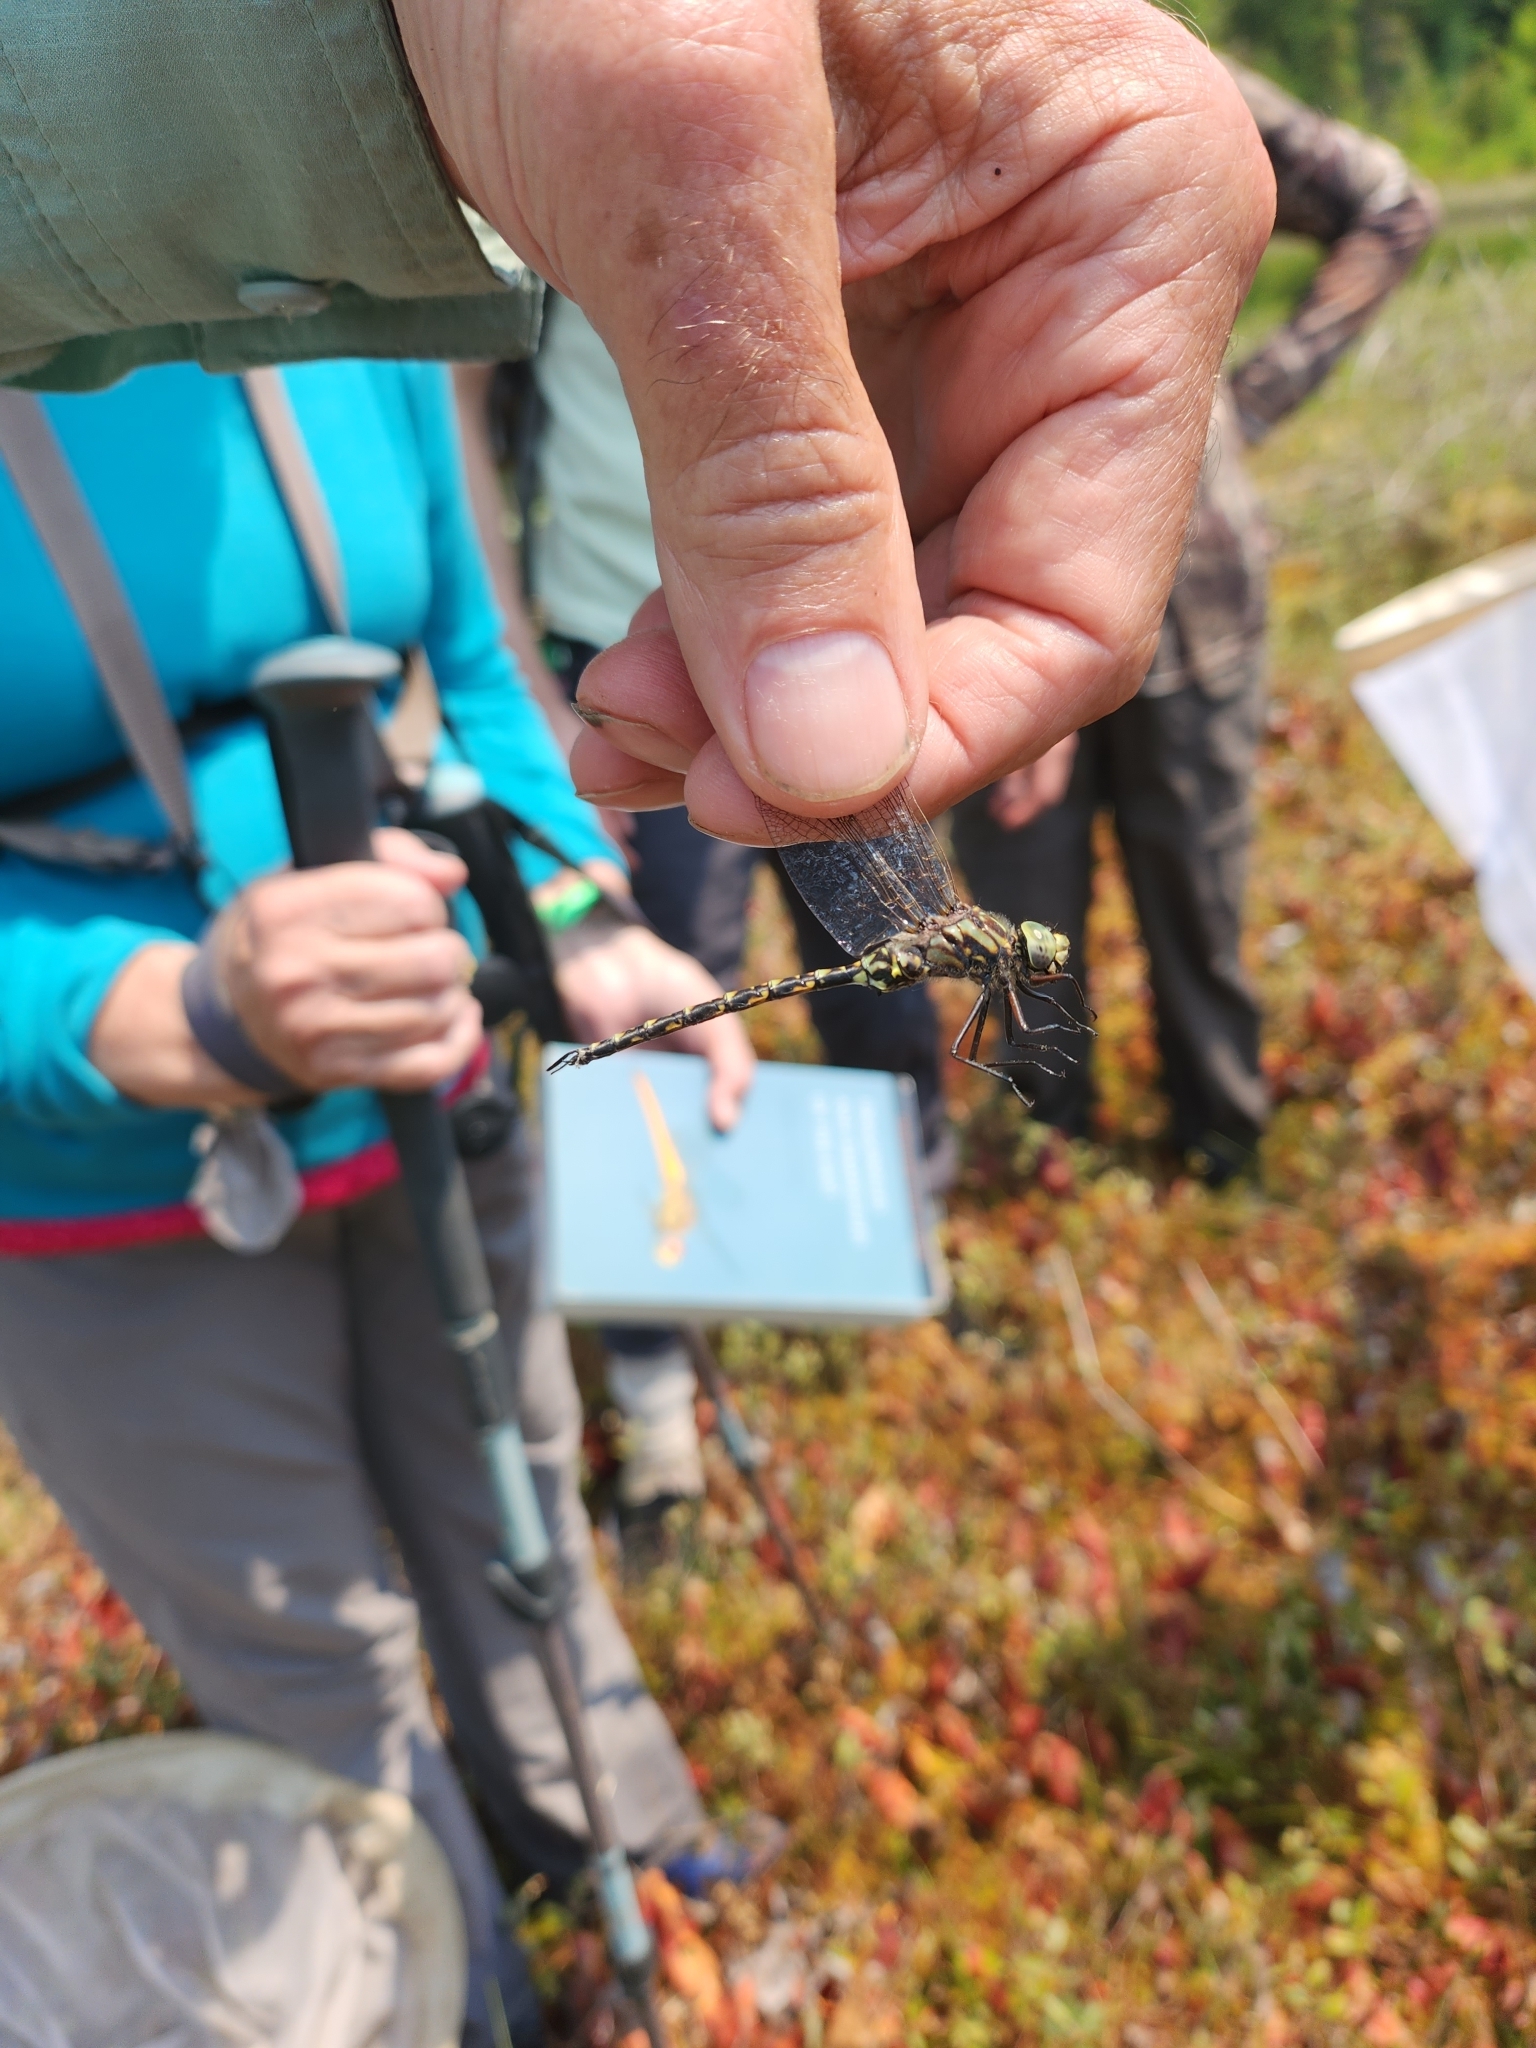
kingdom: Animalia
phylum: Arthropoda
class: Insecta
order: Odonata
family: Aeshnidae
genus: Gomphaeschna
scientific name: Gomphaeschna furcillata
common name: Harlequin darner
